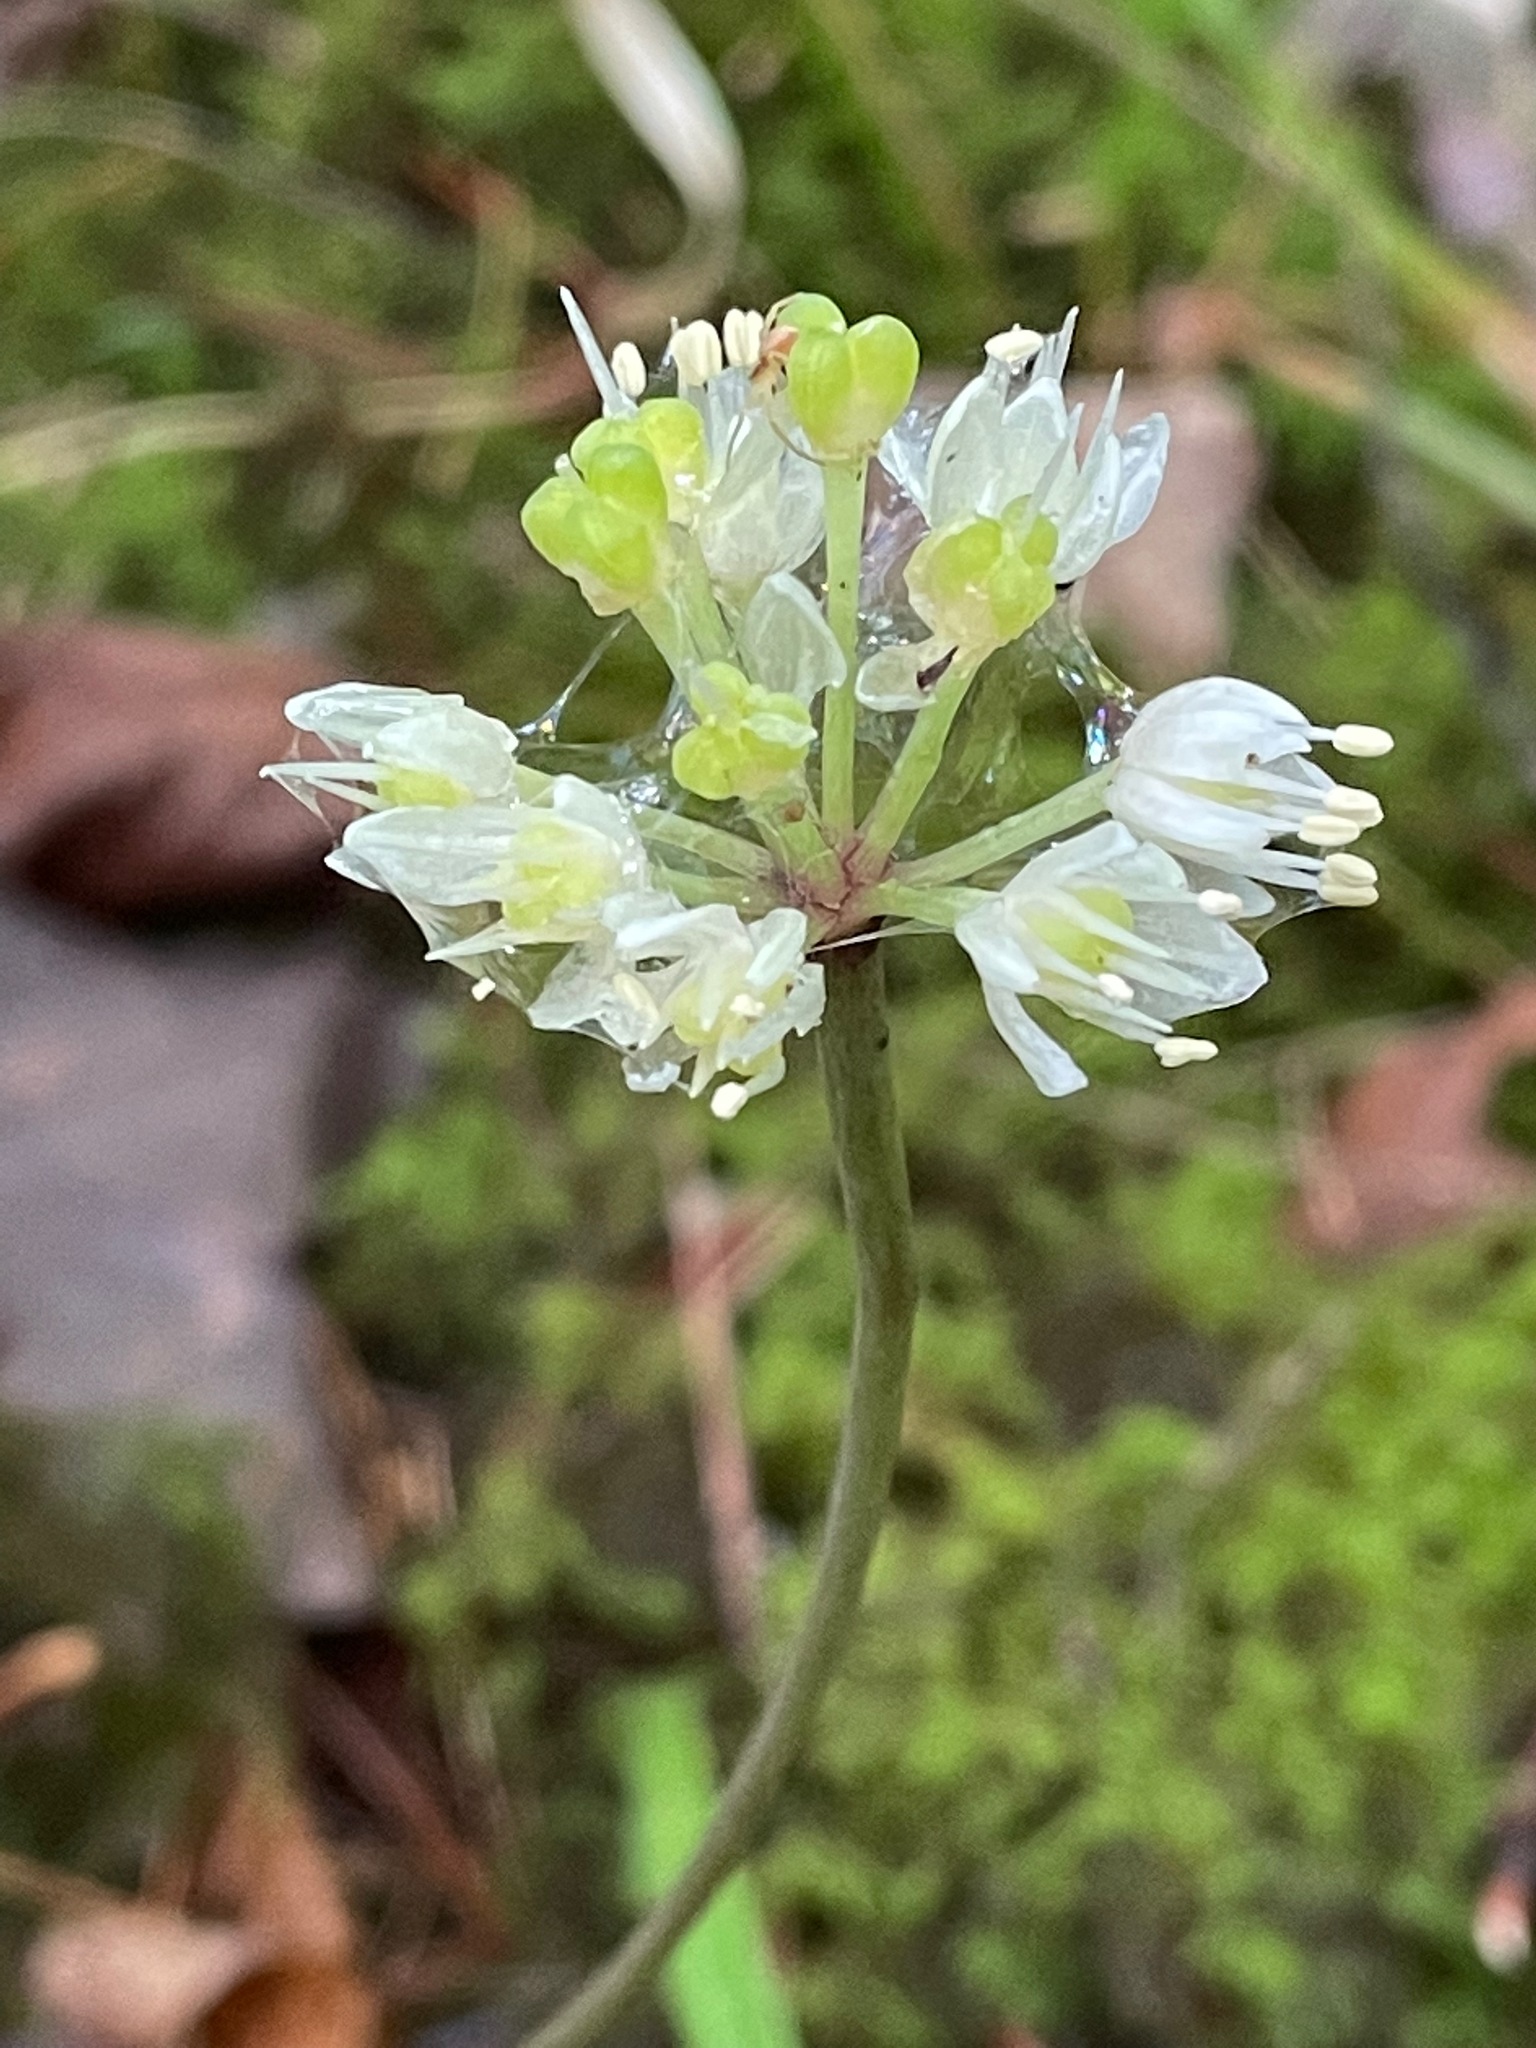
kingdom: Plantae
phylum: Tracheophyta
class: Liliopsida
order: Asparagales
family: Amaryllidaceae
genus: Allium
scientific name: Allium tricoccum
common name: Ramp
